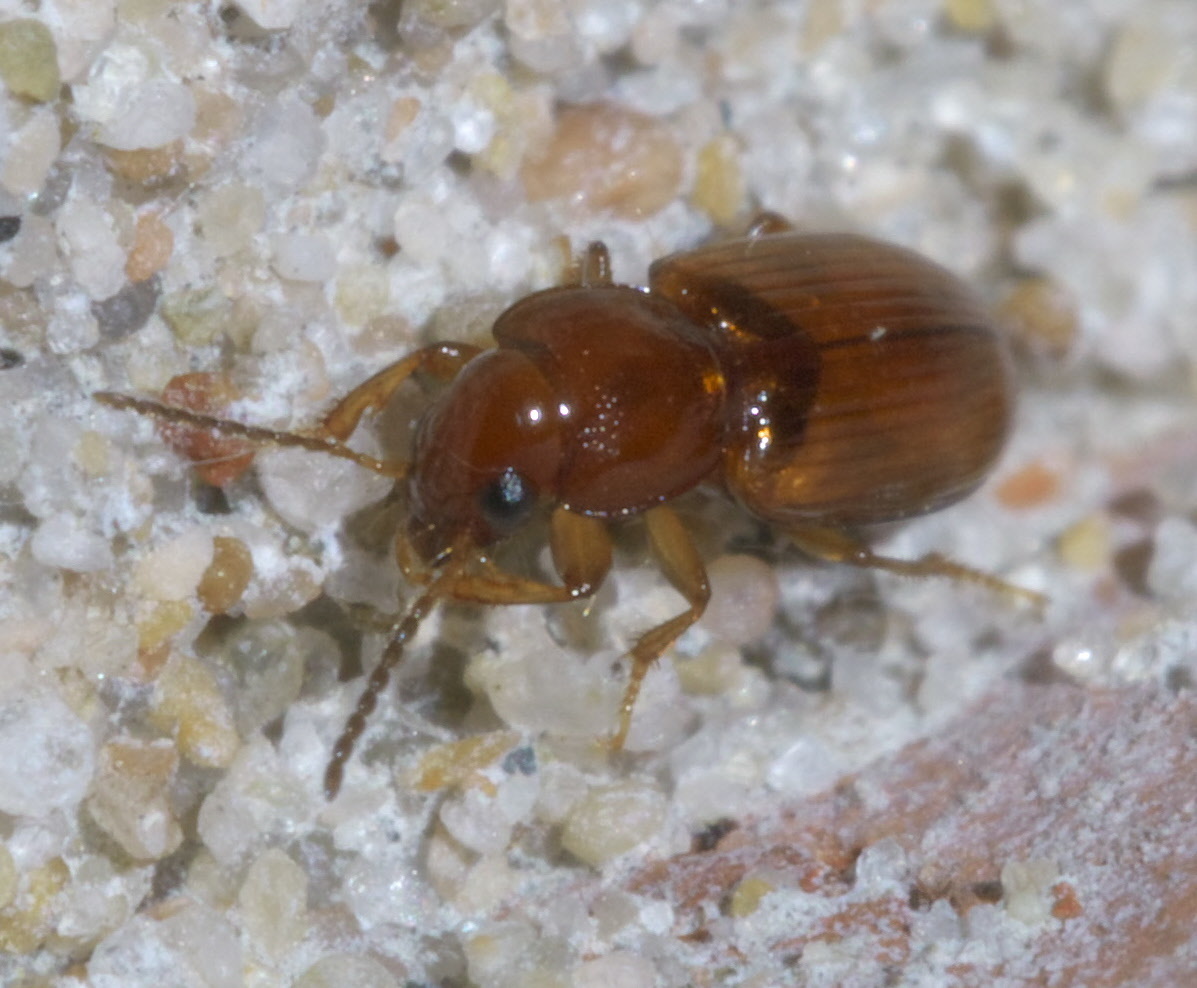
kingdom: Animalia
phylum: Arthropoda
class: Insecta
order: Coleoptera
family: Carabidae
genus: Acupalpus
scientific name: Acupalpus testaceus
